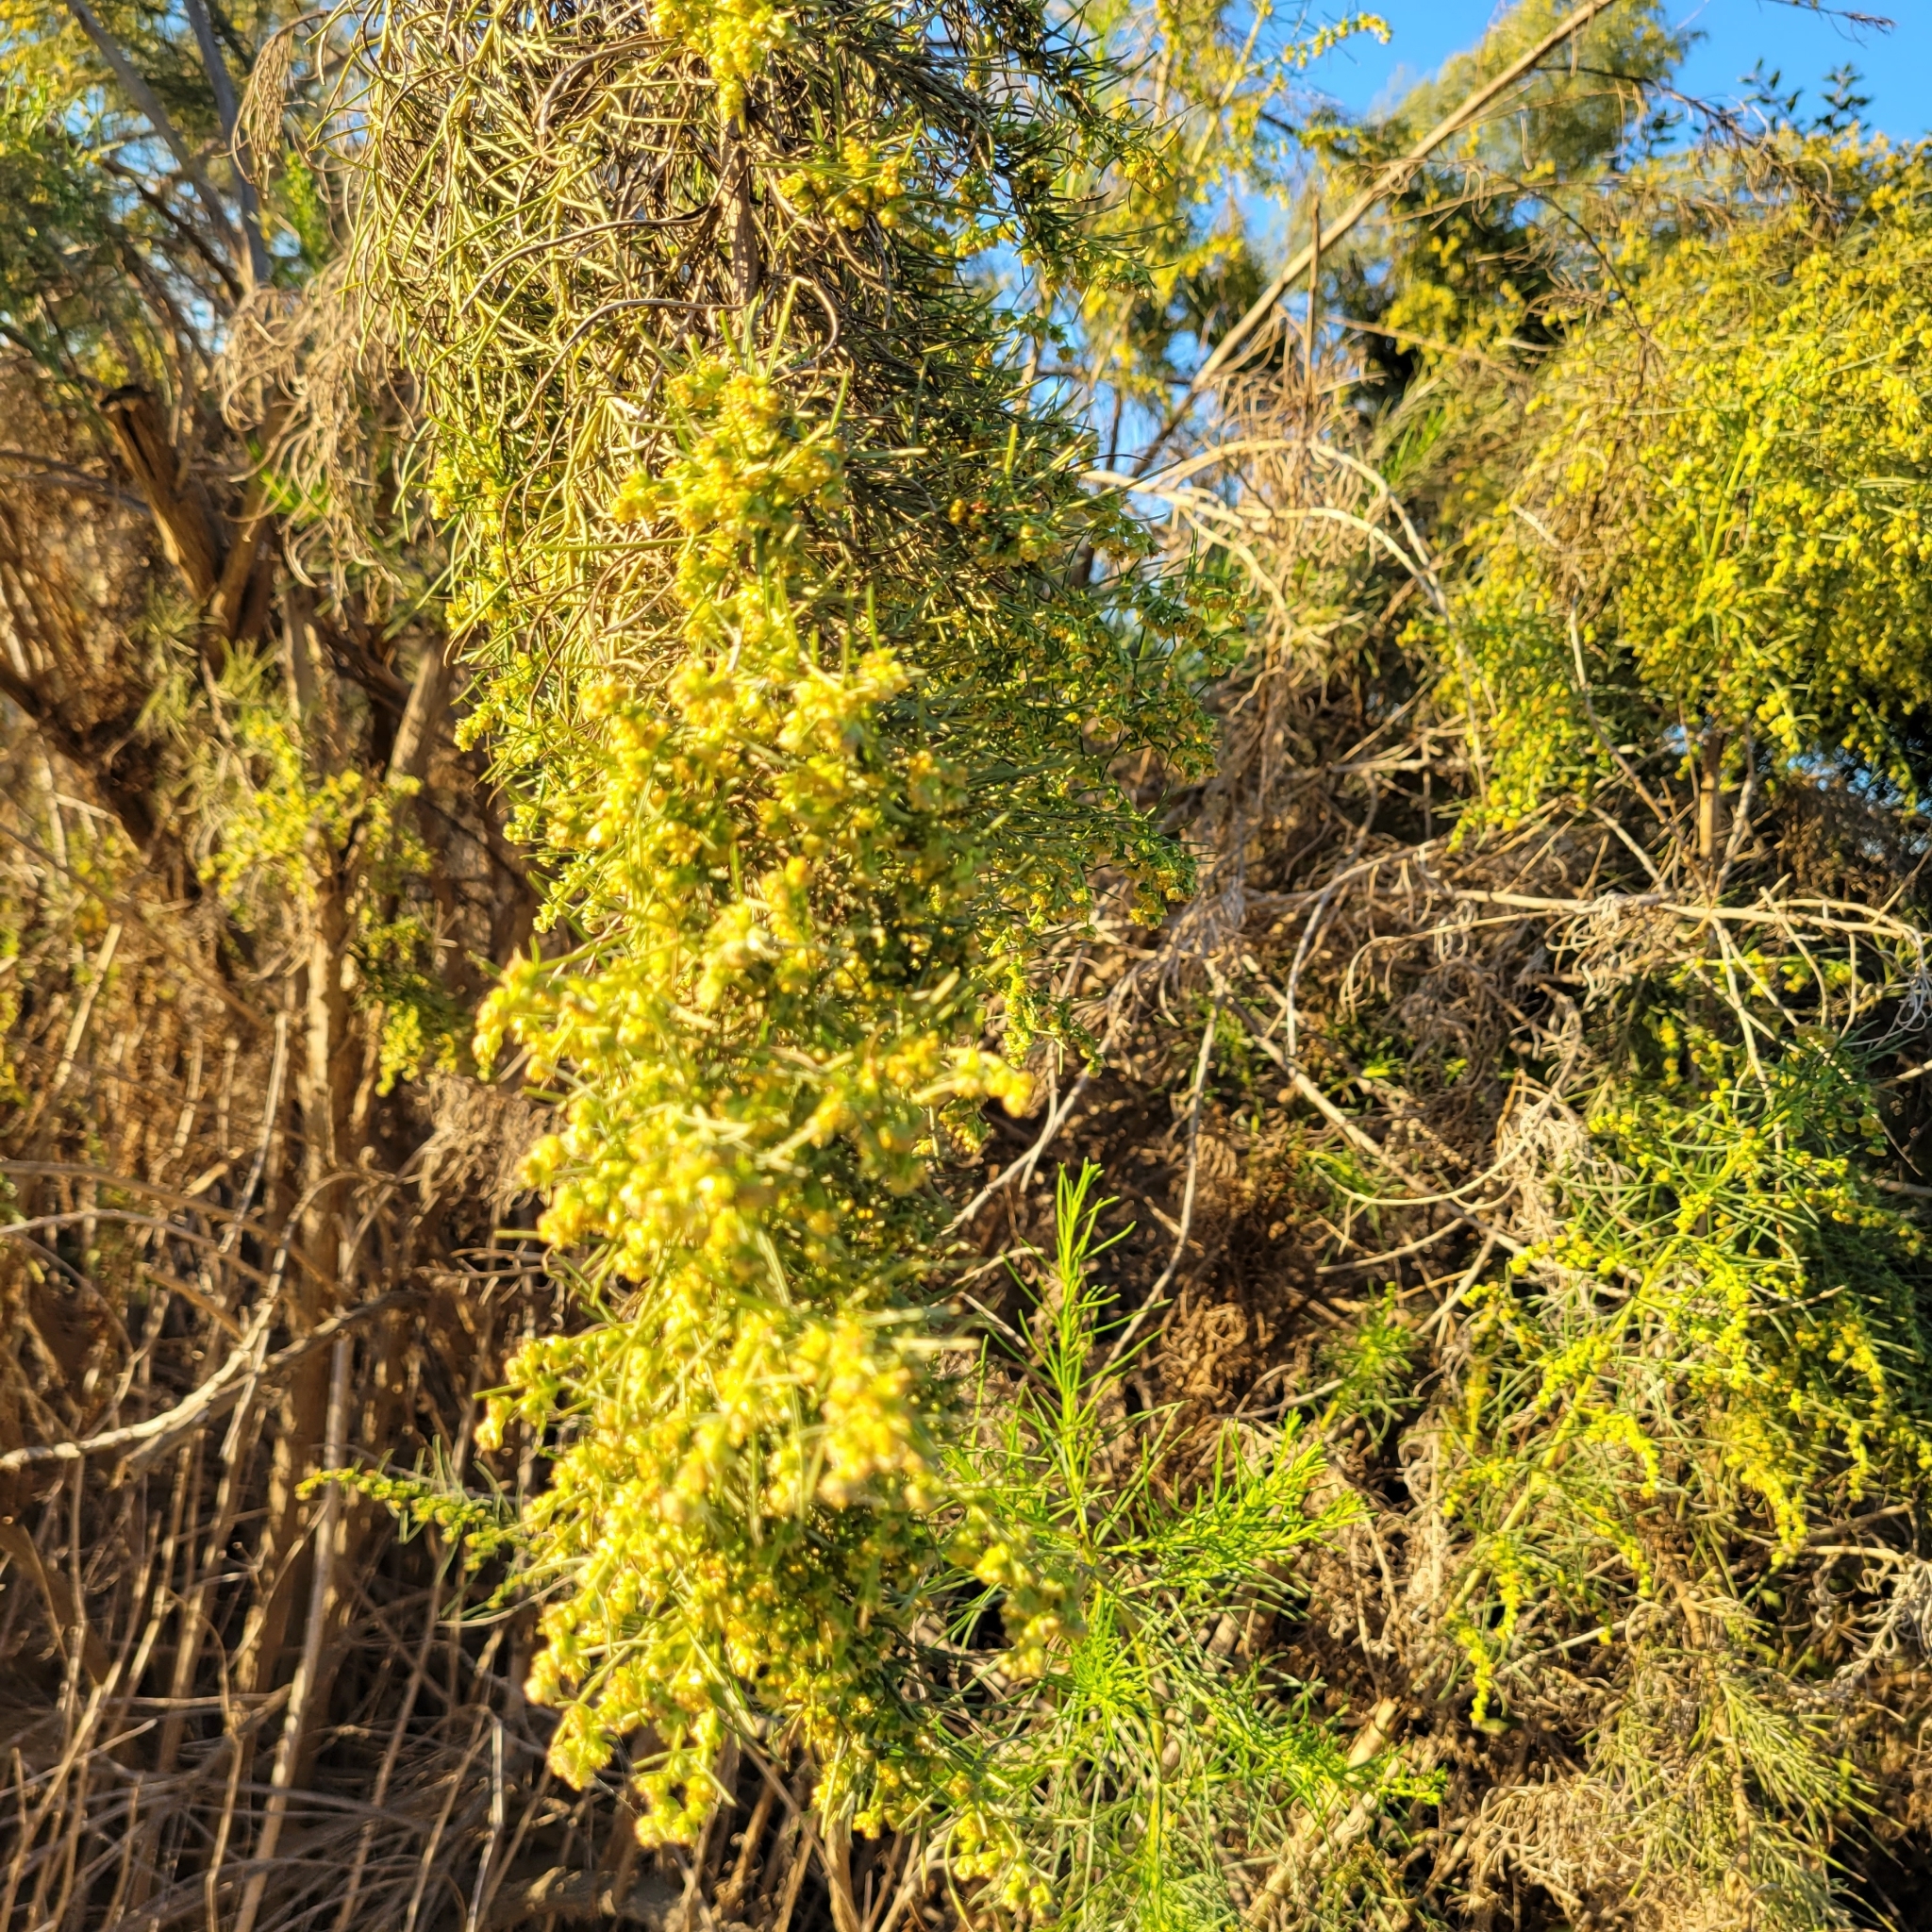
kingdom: Plantae
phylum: Tracheophyta
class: Magnoliopsida
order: Asterales
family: Asteraceae
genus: Ambrosia
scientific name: Ambrosia monogyra
